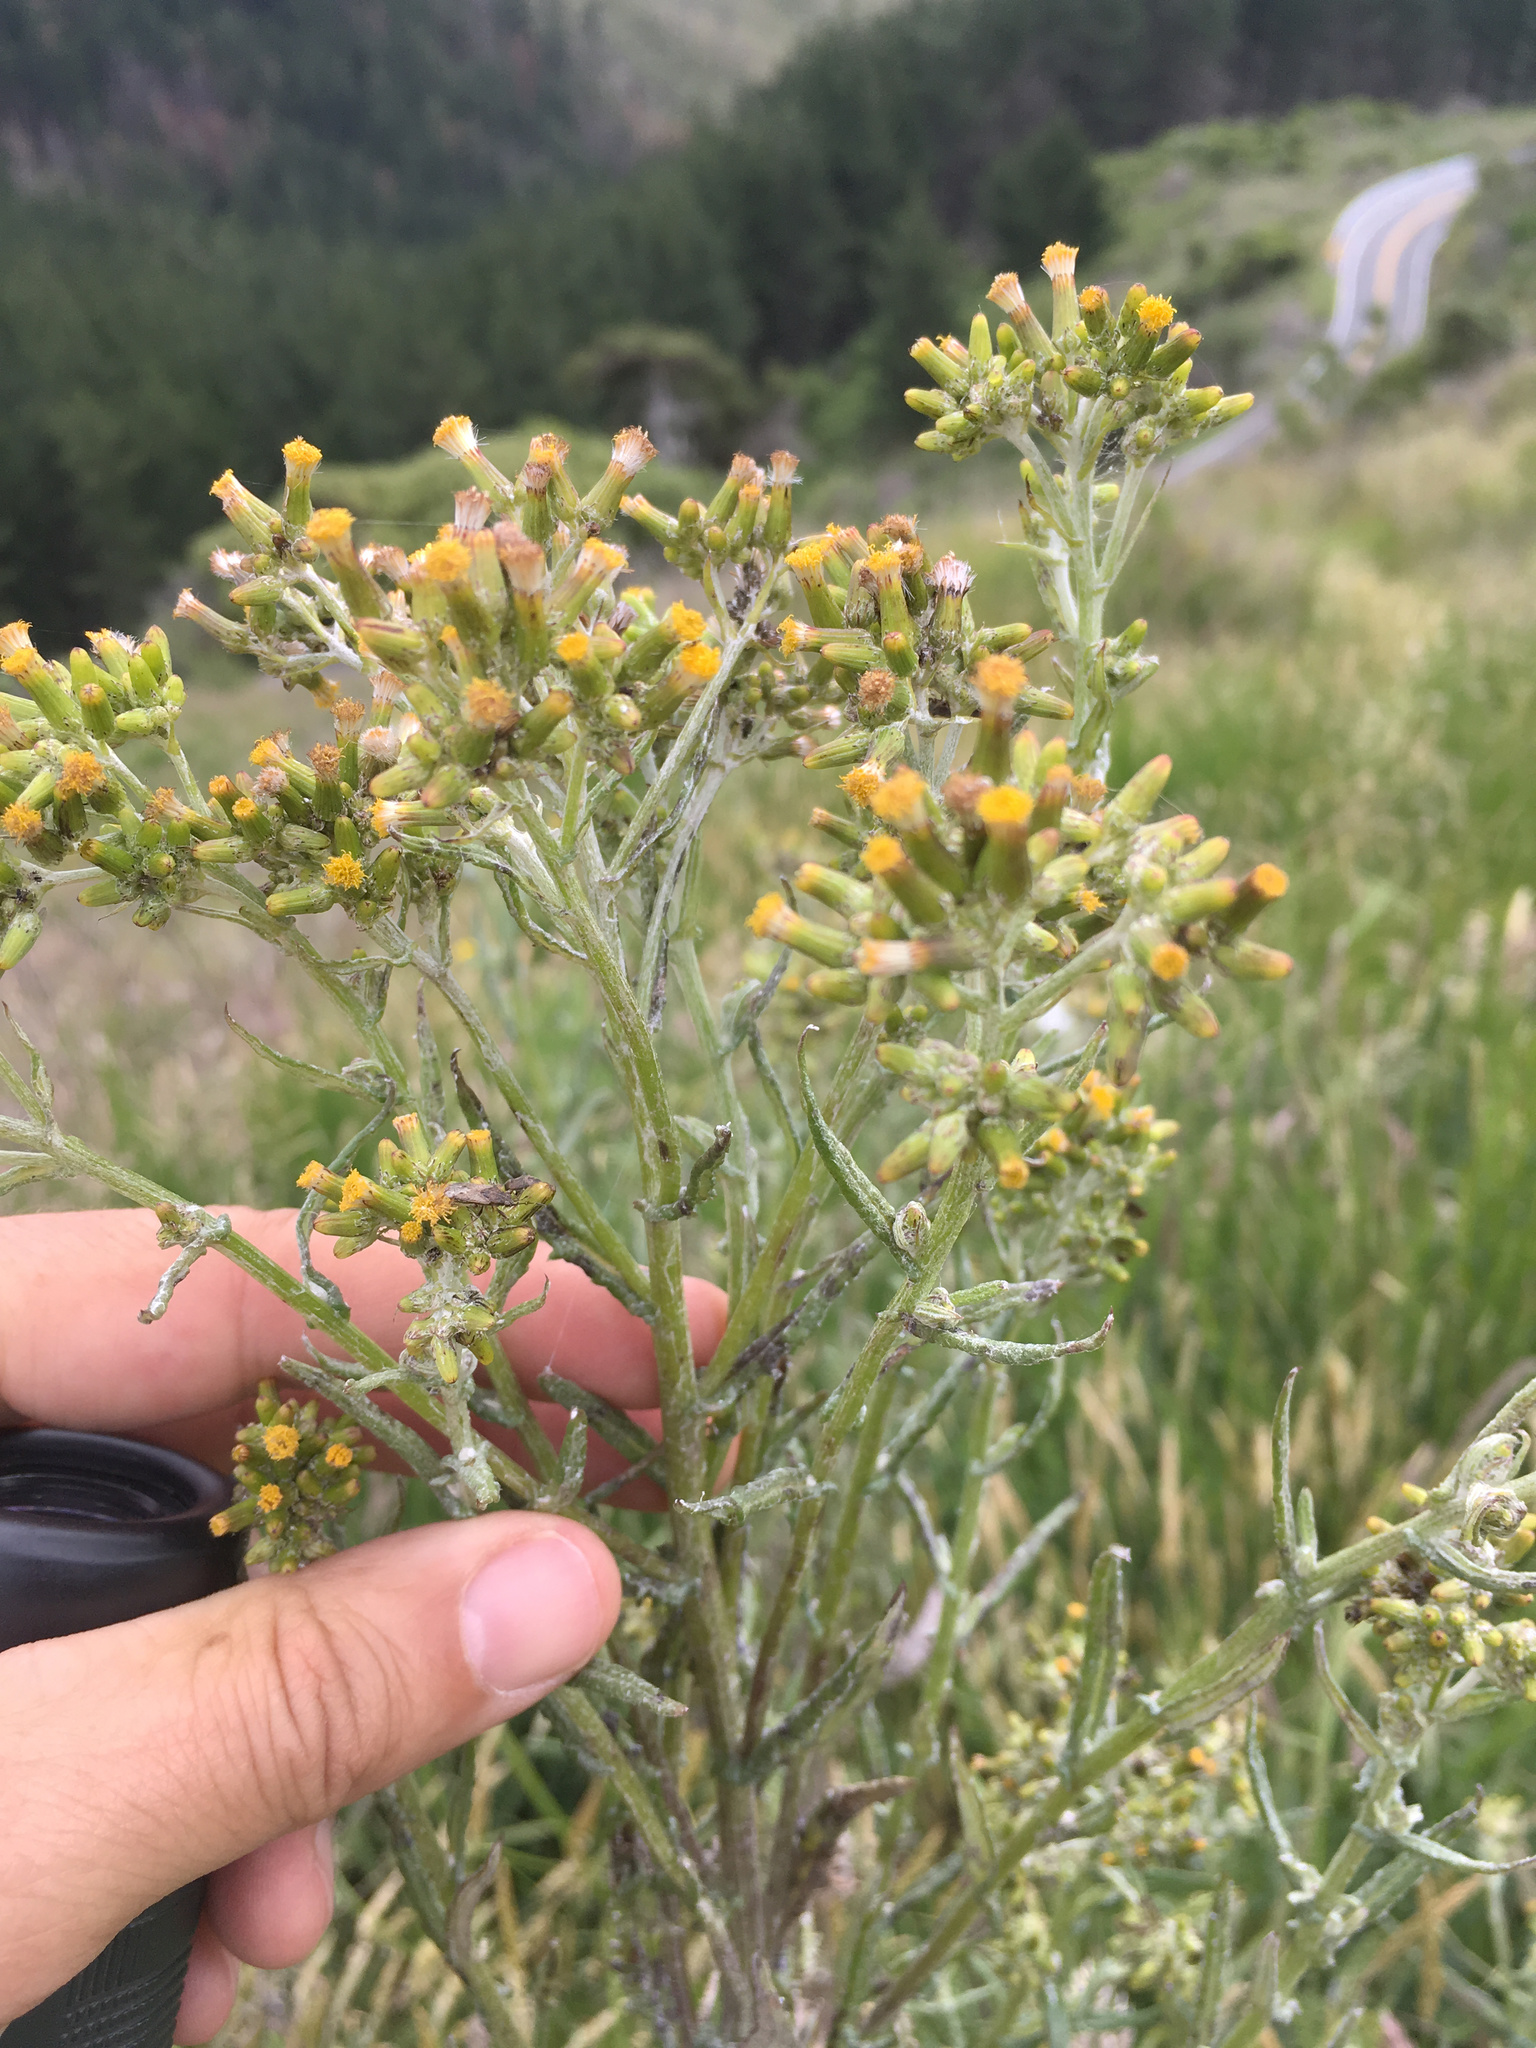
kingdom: Plantae
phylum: Tracheophyta
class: Magnoliopsida
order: Asterales
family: Asteraceae
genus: Senecio
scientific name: Senecio glomeratus
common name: Cutleaf burnweed
